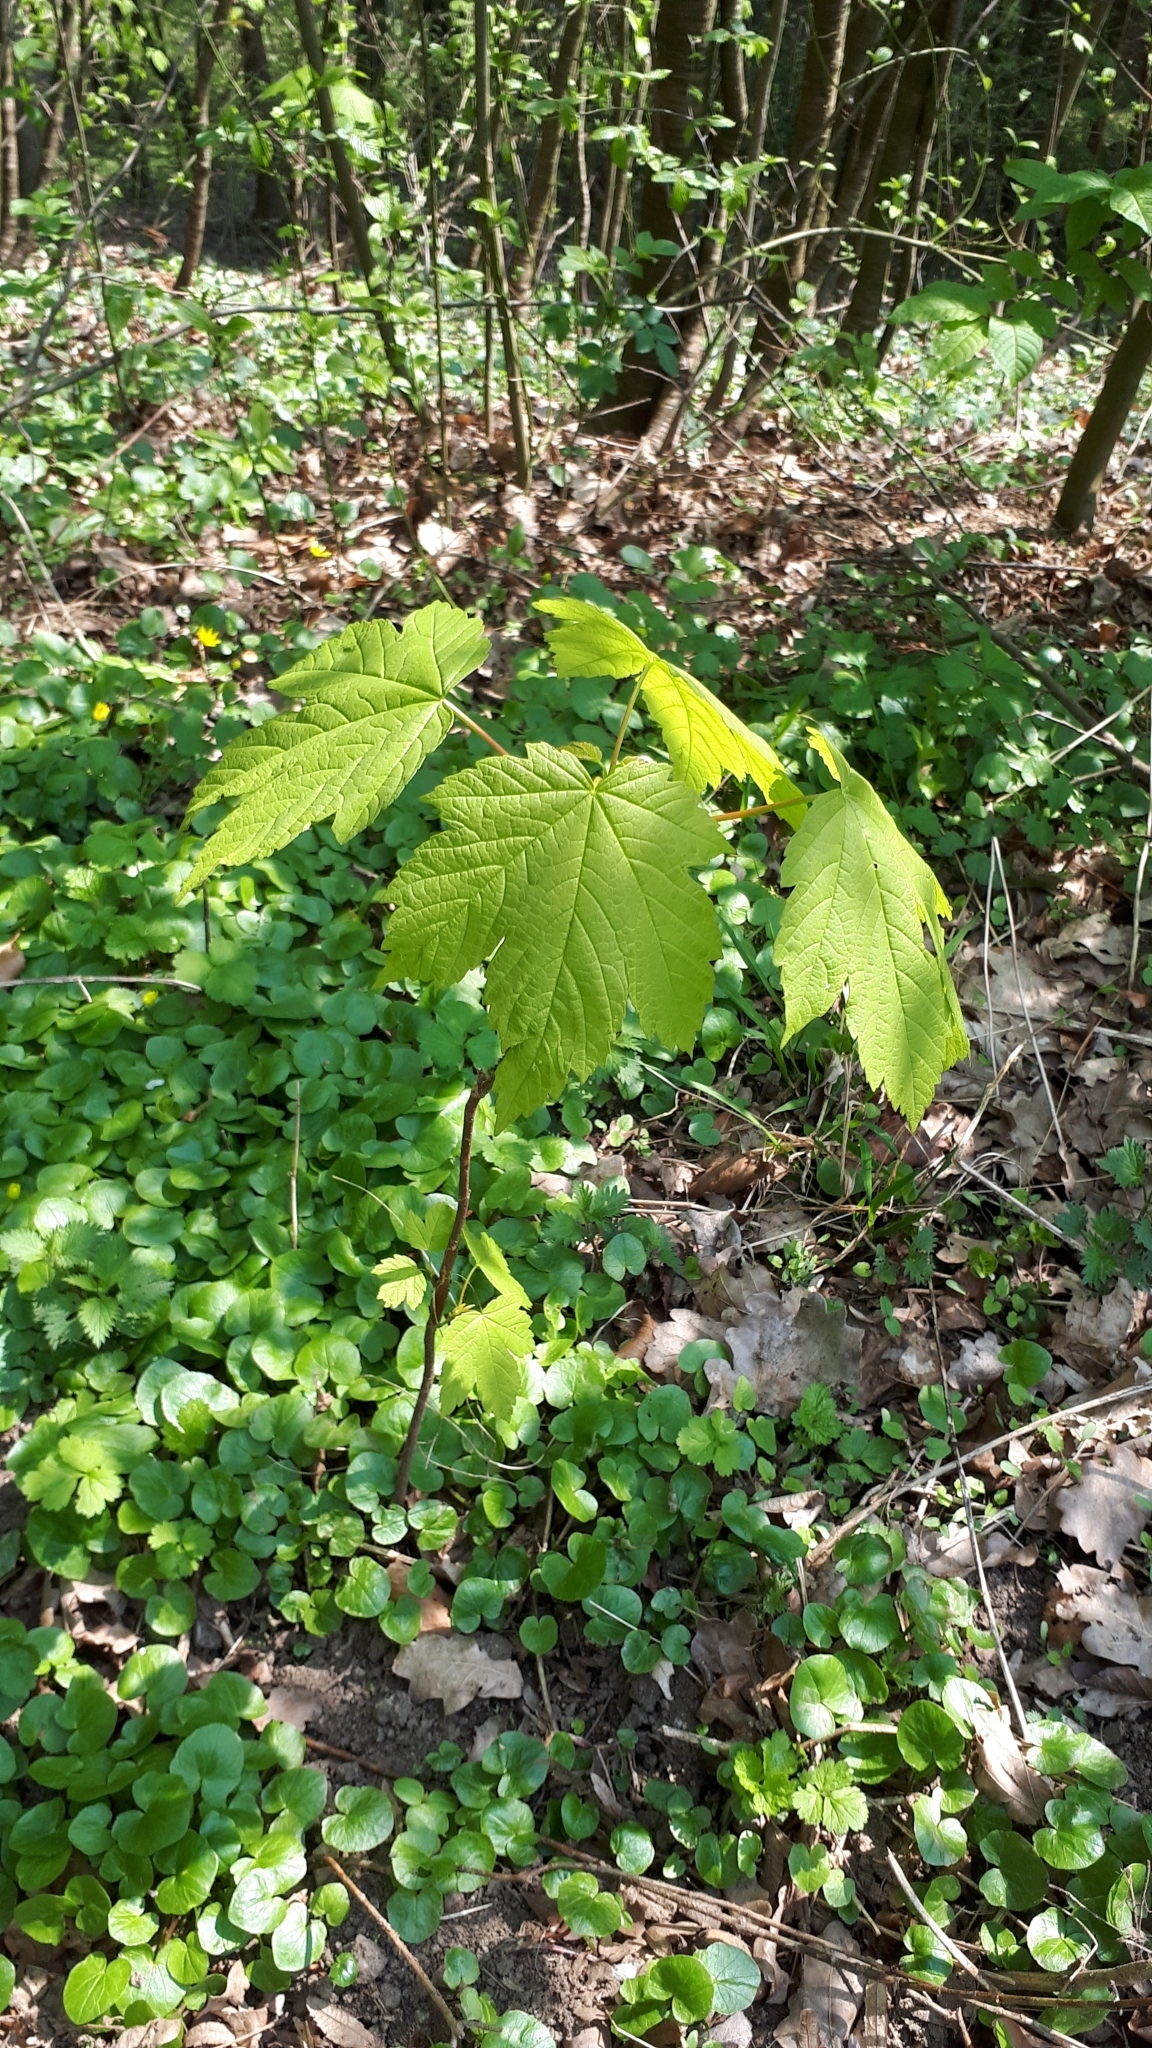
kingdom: Plantae
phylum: Tracheophyta
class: Magnoliopsida
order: Sapindales
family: Sapindaceae
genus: Acer
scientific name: Acer pseudoplatanus
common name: Sycamore
